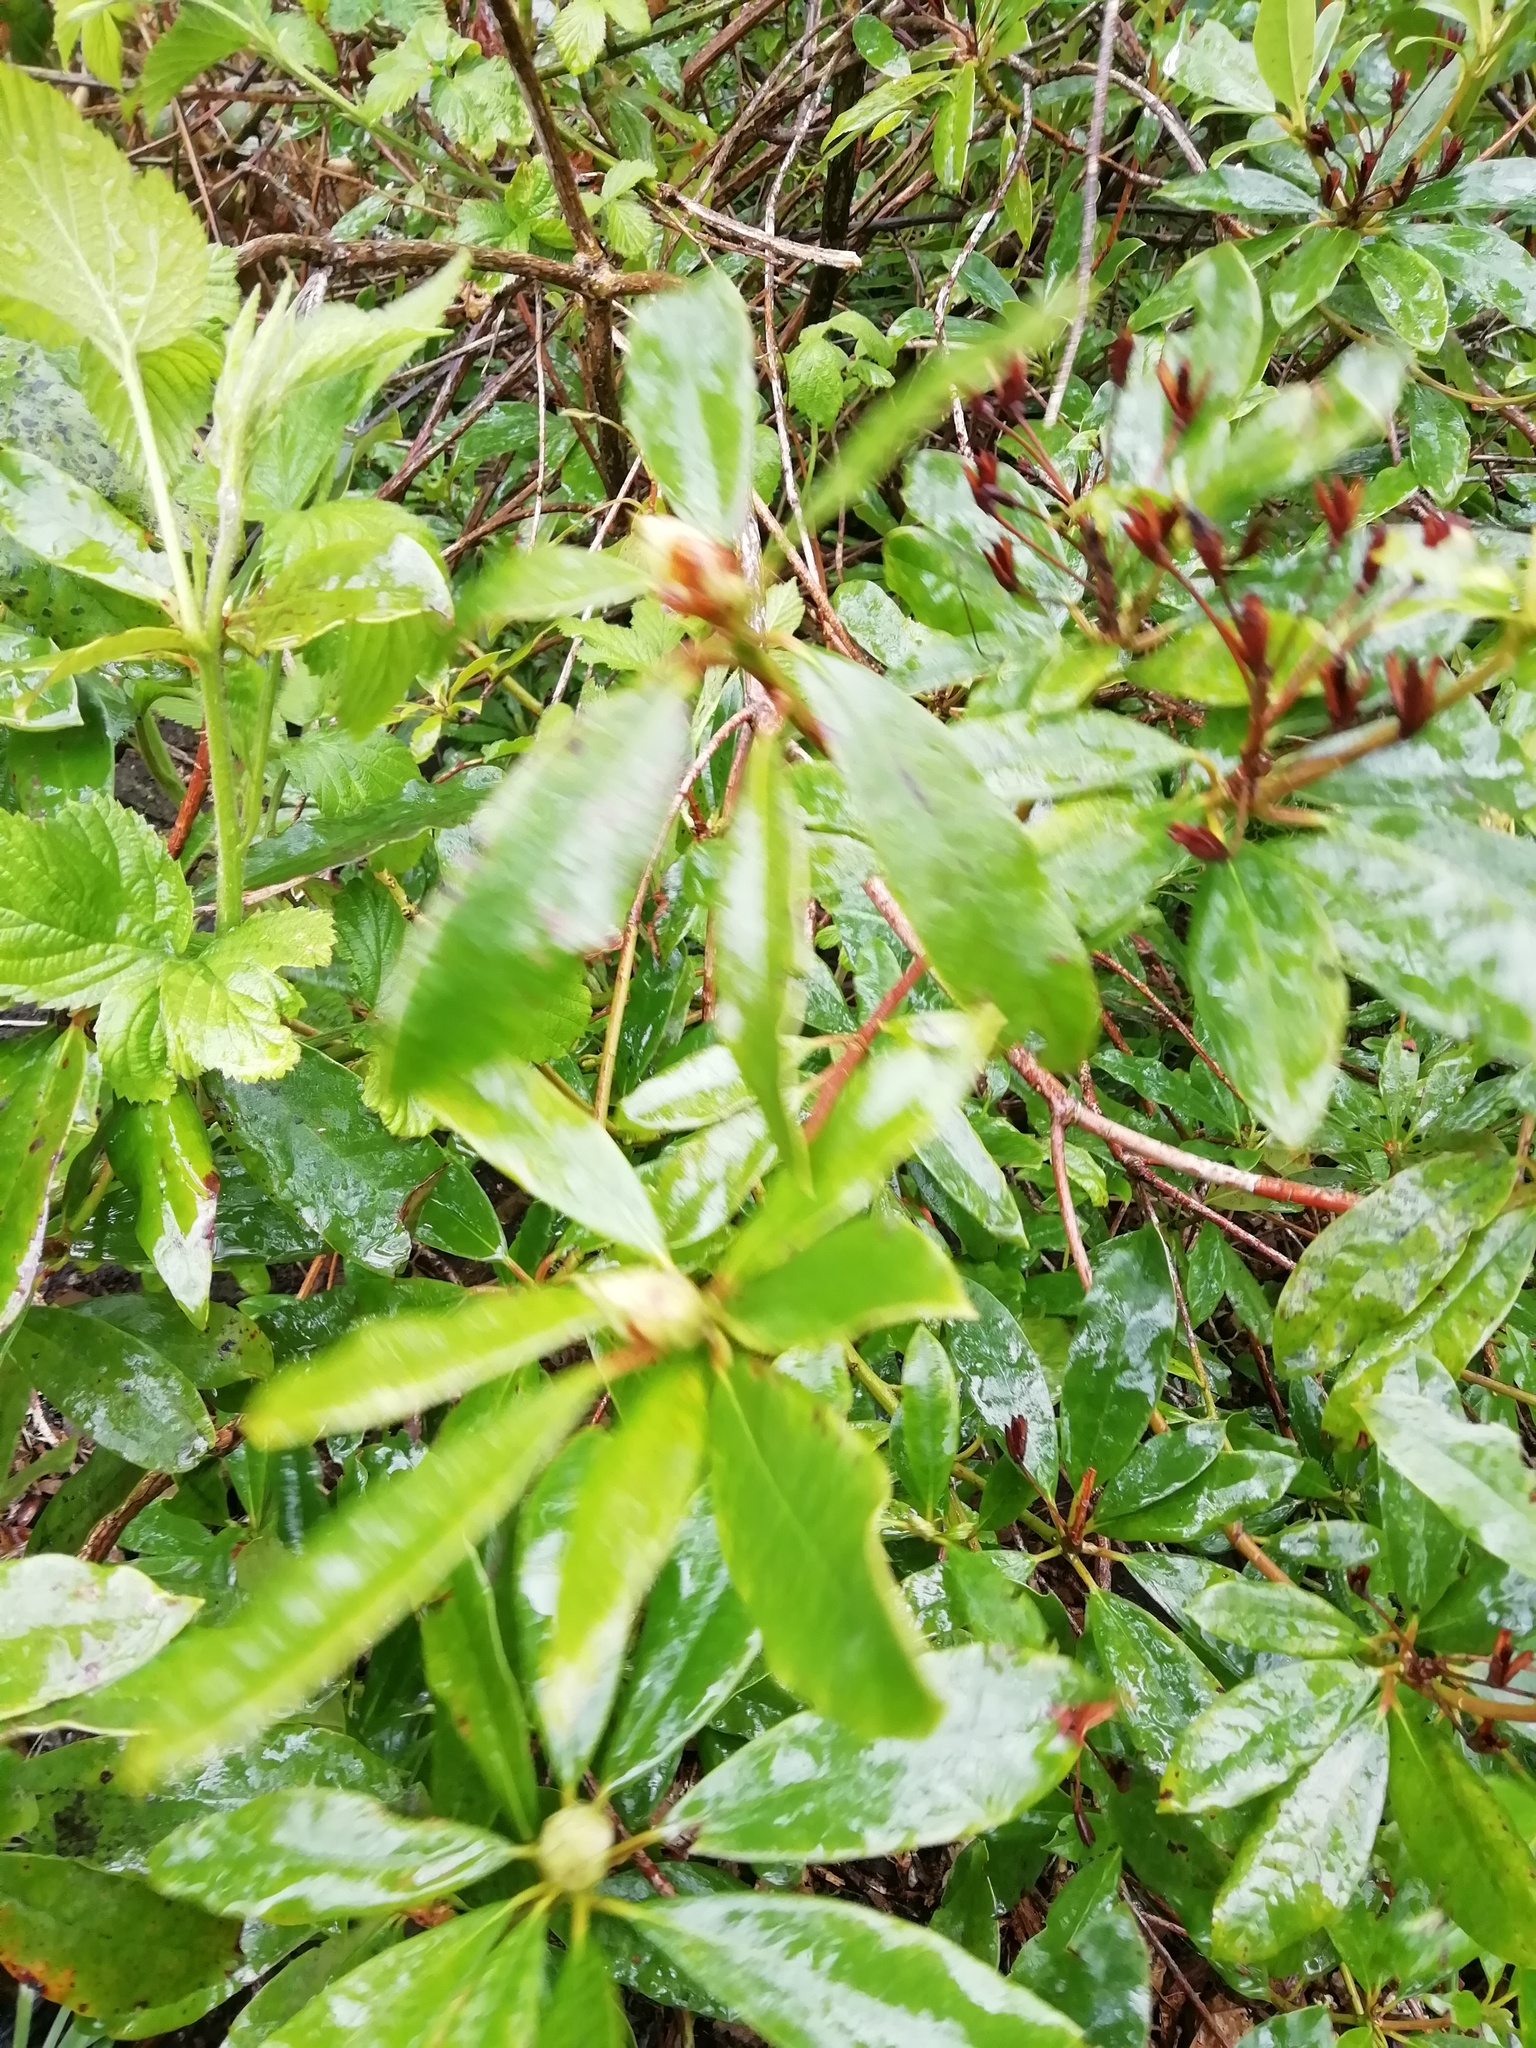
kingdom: Plantae
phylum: Tracheophyta
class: Magnoliopsida
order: Ericales
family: Ericaceae
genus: Rhododendron
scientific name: Rhododendron ponticum
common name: Rhododendron
